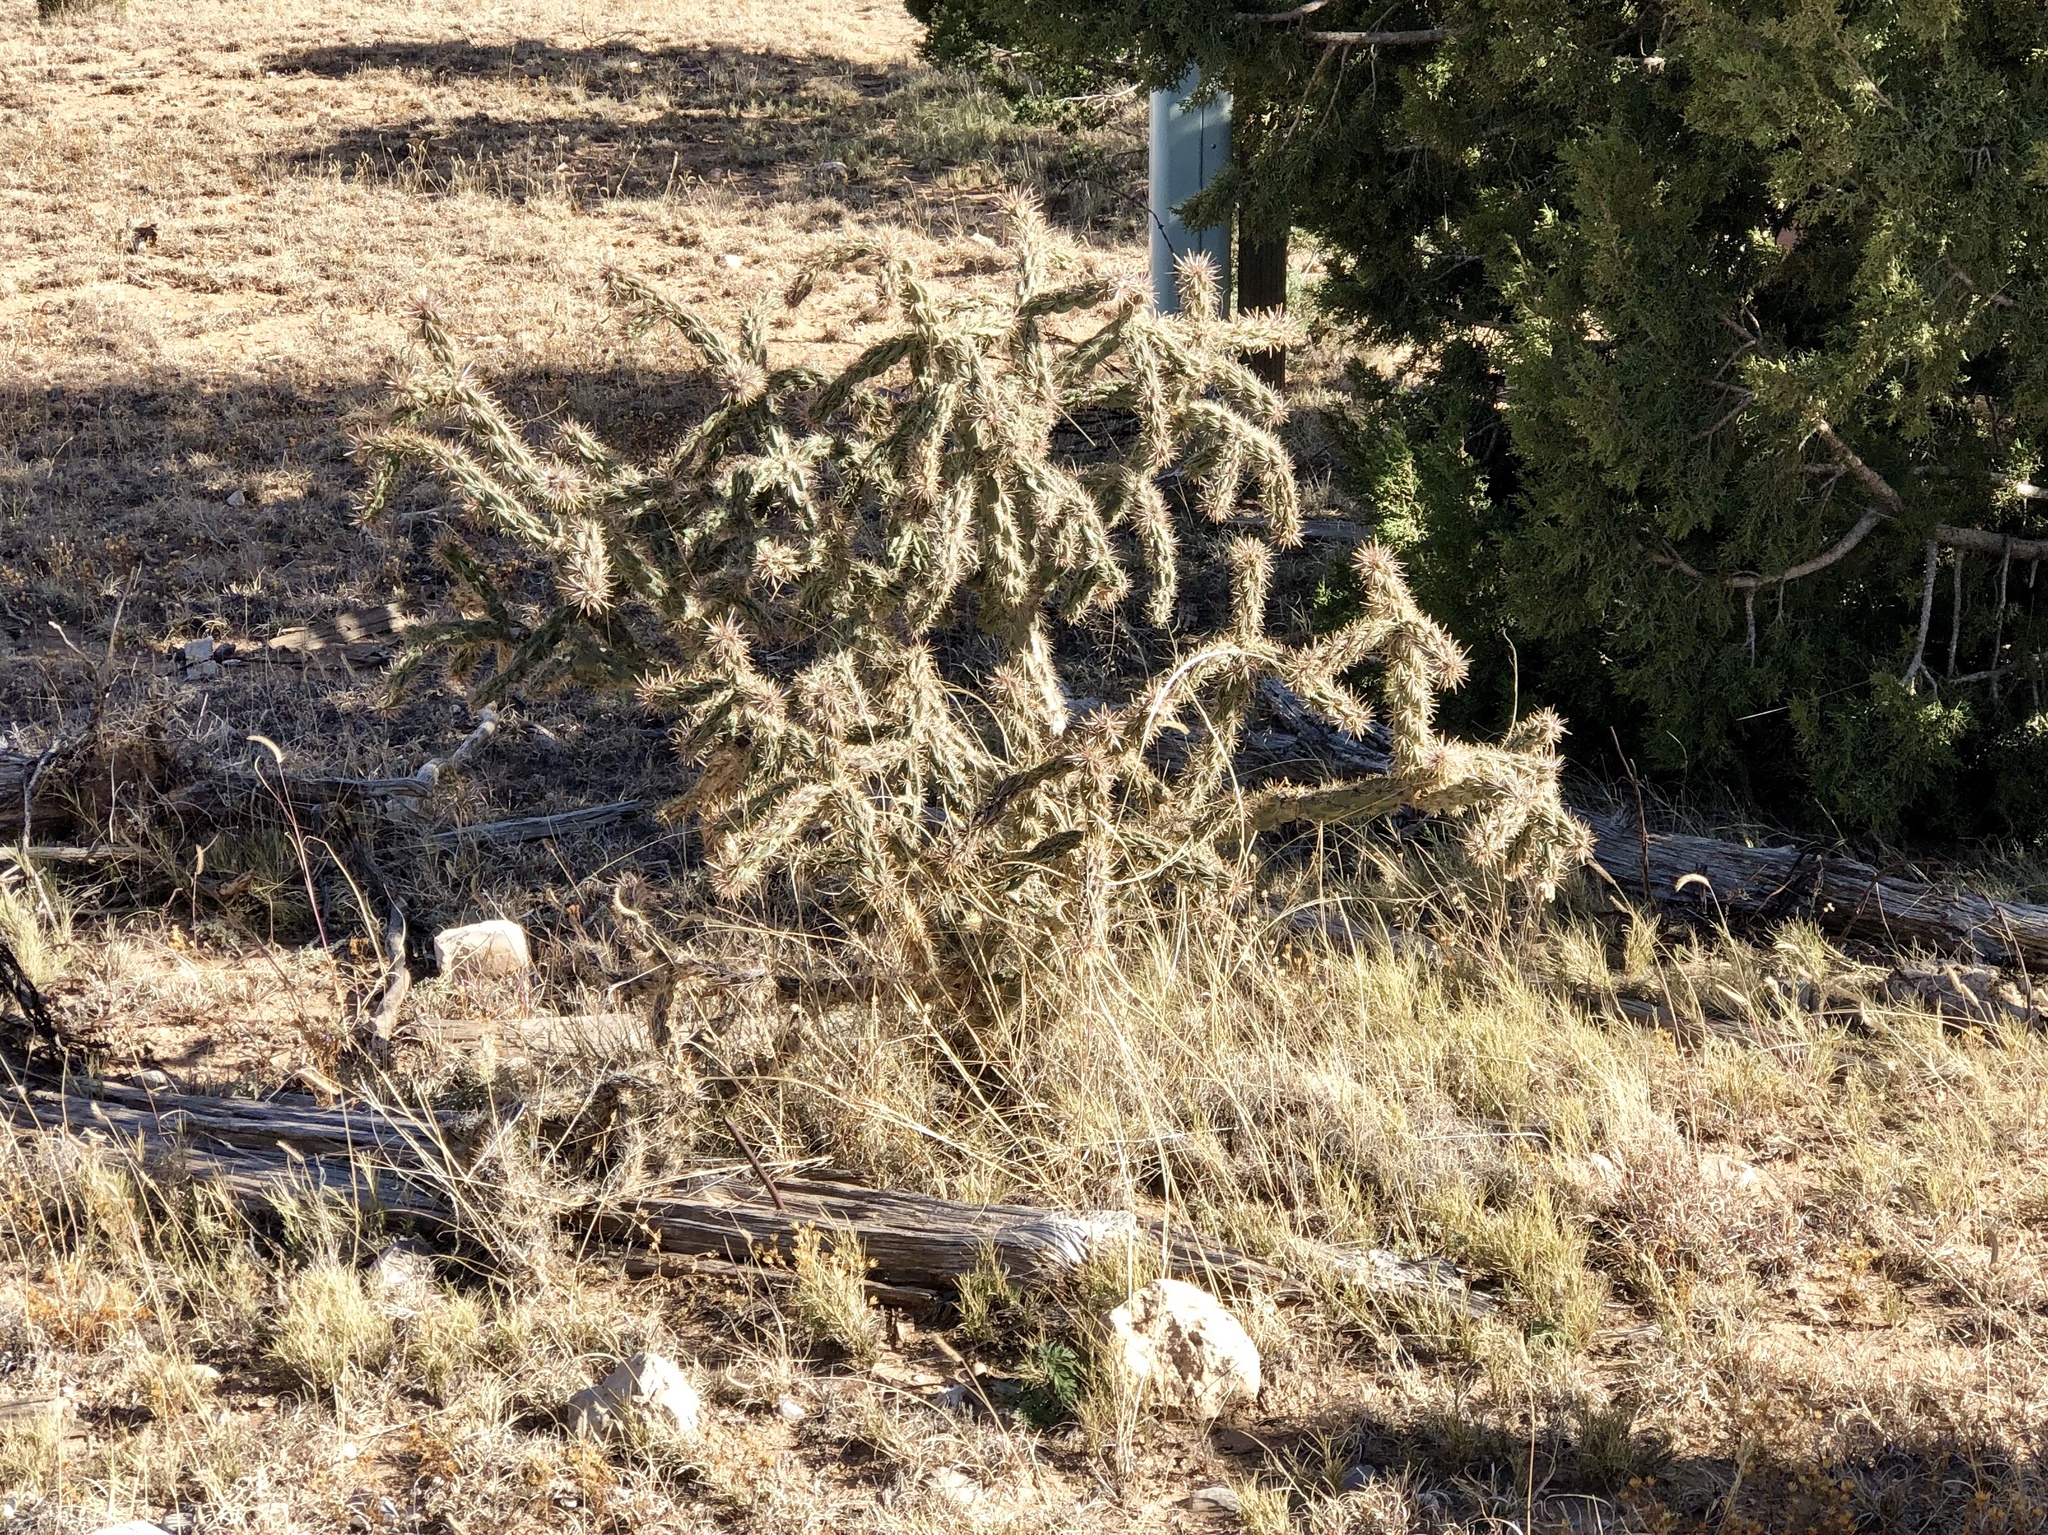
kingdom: Plantae
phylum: Tracheophyta
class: Magnoliopsida
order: Caryophyllales
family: Cactaceae
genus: Cylindropuntia
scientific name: Cylindropuntia imbricata
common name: Candelabrum cactus
